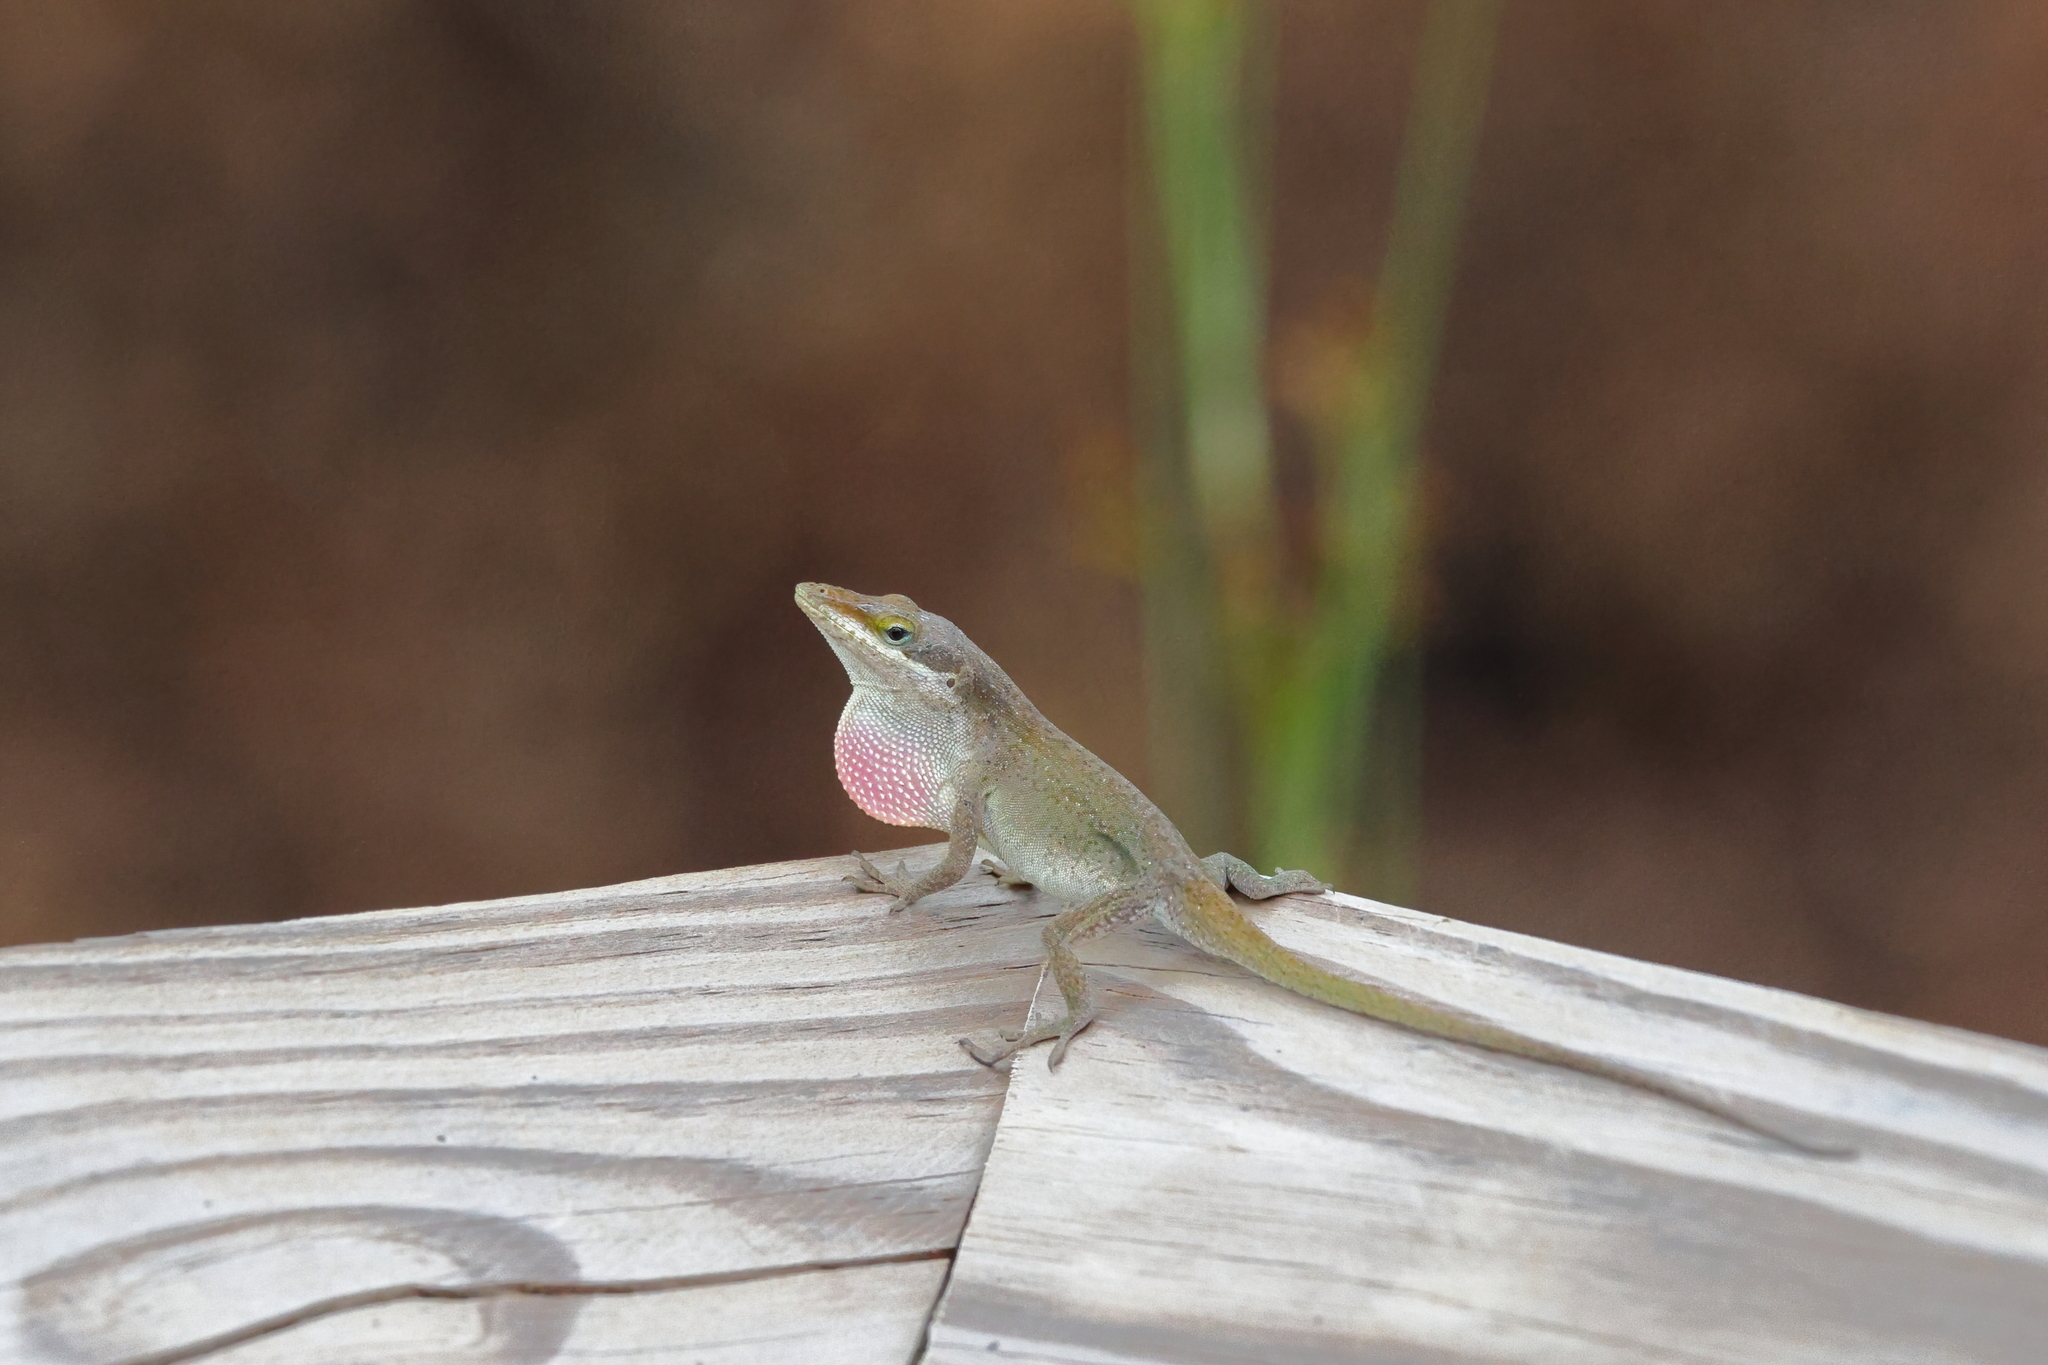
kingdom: Animalia
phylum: Chordata
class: Squamata
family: Dactyloidae
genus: Anolis
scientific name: Anolis carolinensis
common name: Green anole
